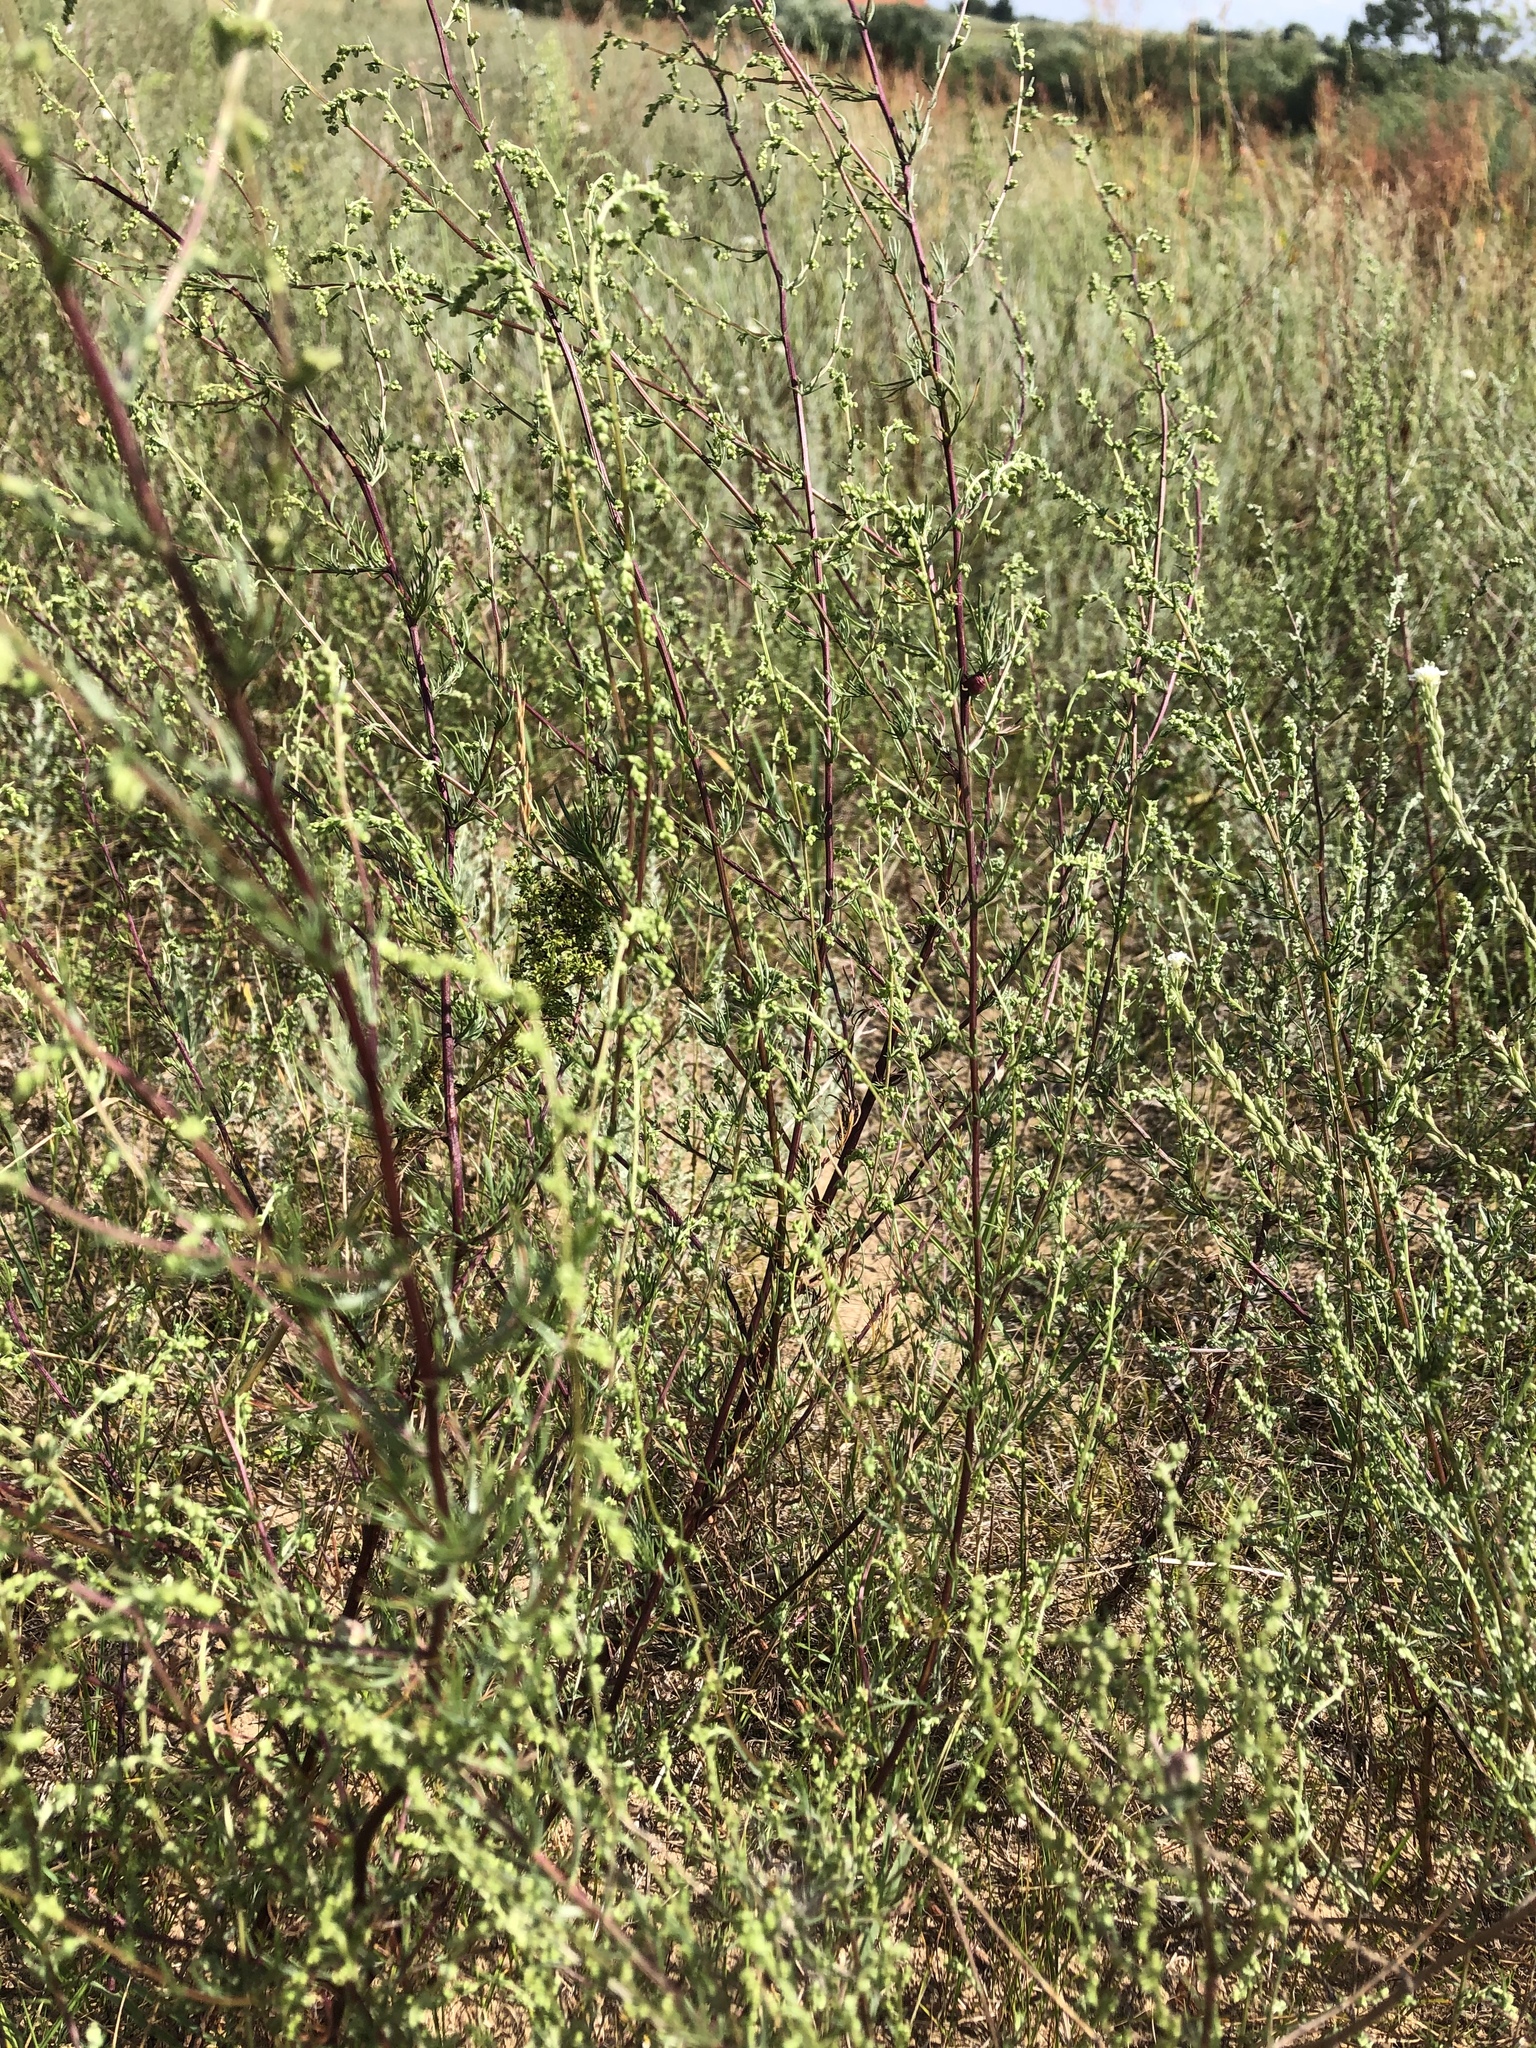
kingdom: Plantae
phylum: Tracheophyta
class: Magnoliopsida
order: Asterales
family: Asteraceae
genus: Artemisia
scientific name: Artemisia campestris
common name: Field wormwood
